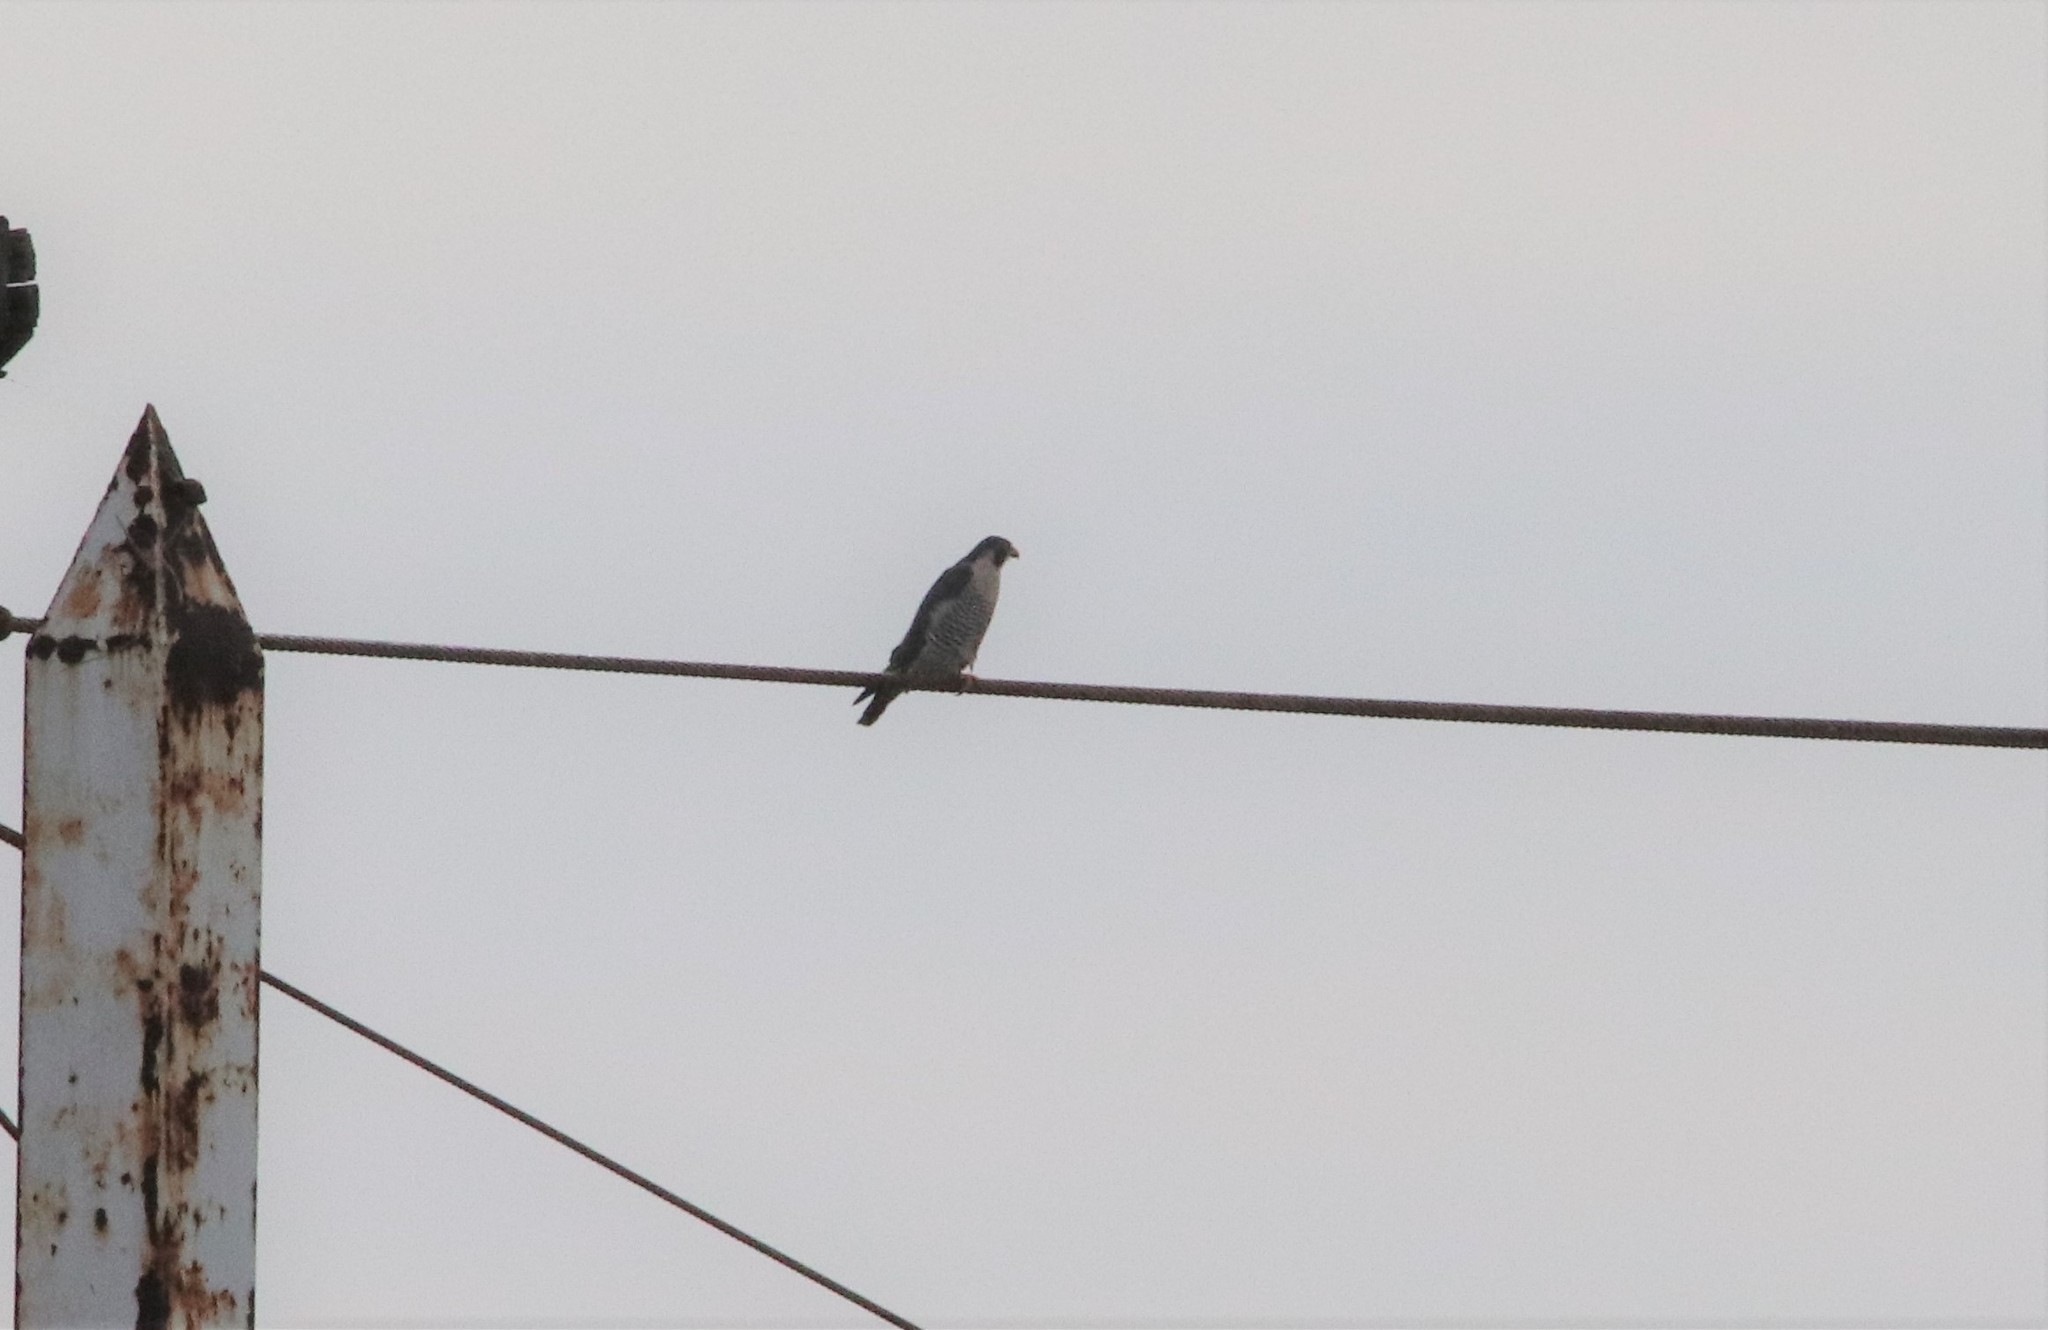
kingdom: Animalia
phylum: Chordata
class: Aves
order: Falconiformes
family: Falconidae
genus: Falco
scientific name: Falco peregrinus
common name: Peregrine falcon
